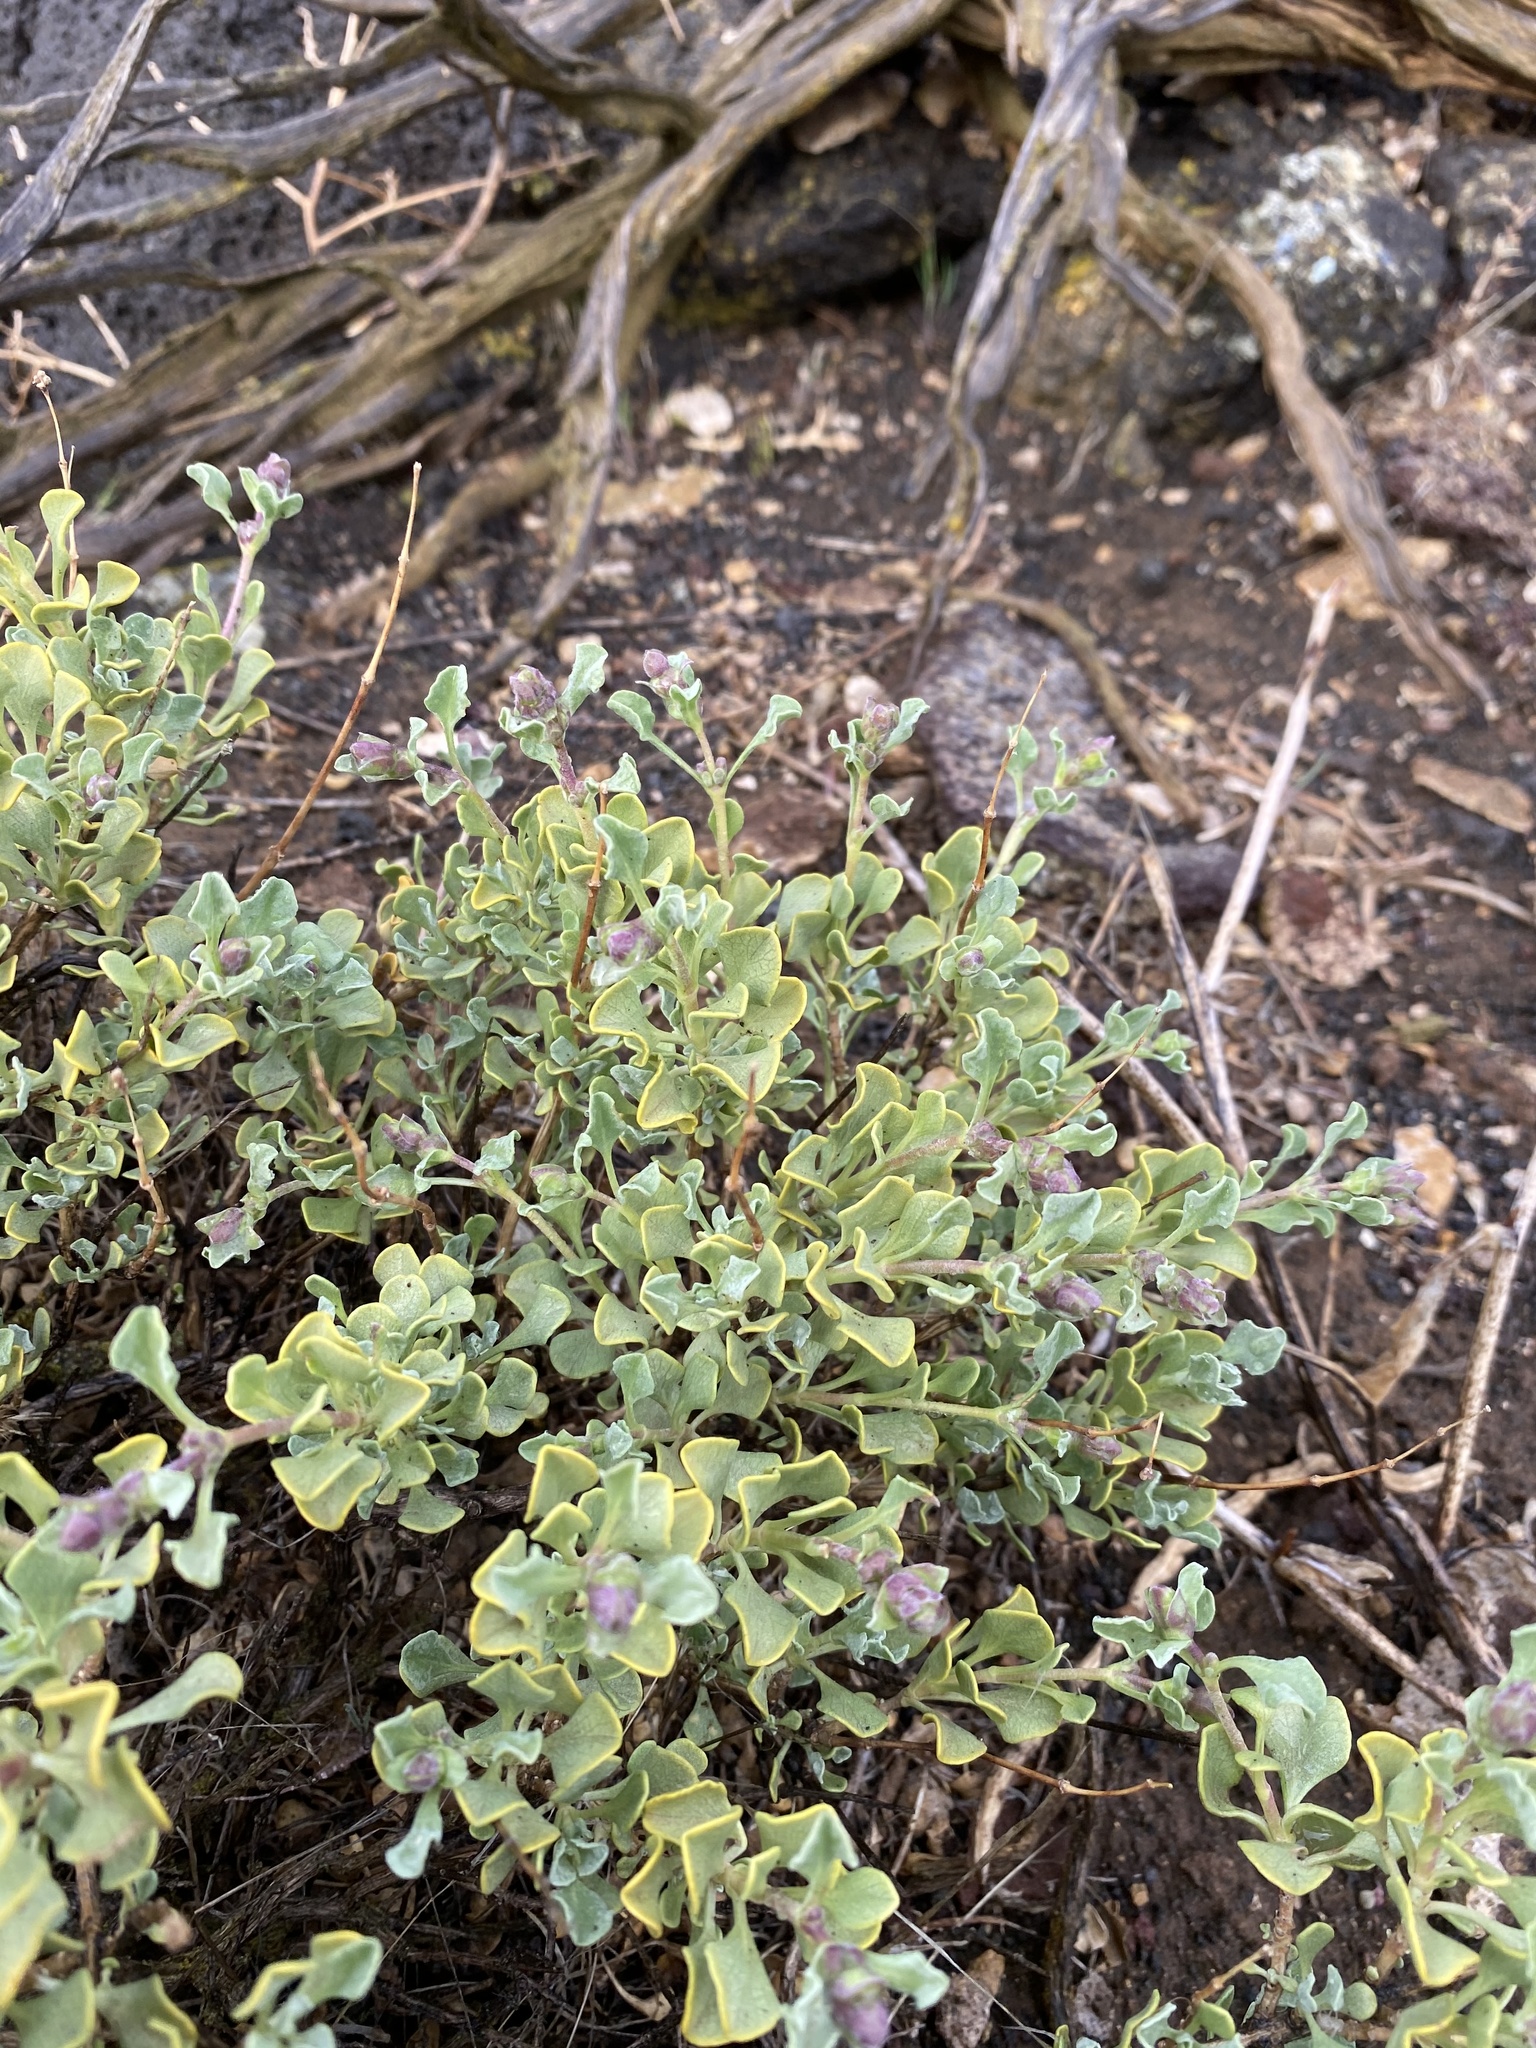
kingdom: Plantae
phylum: Tracheophyta
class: Magnoliopsida
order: Lamiales
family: Lamiaceae
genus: Salvia
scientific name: Salvia dorrii
